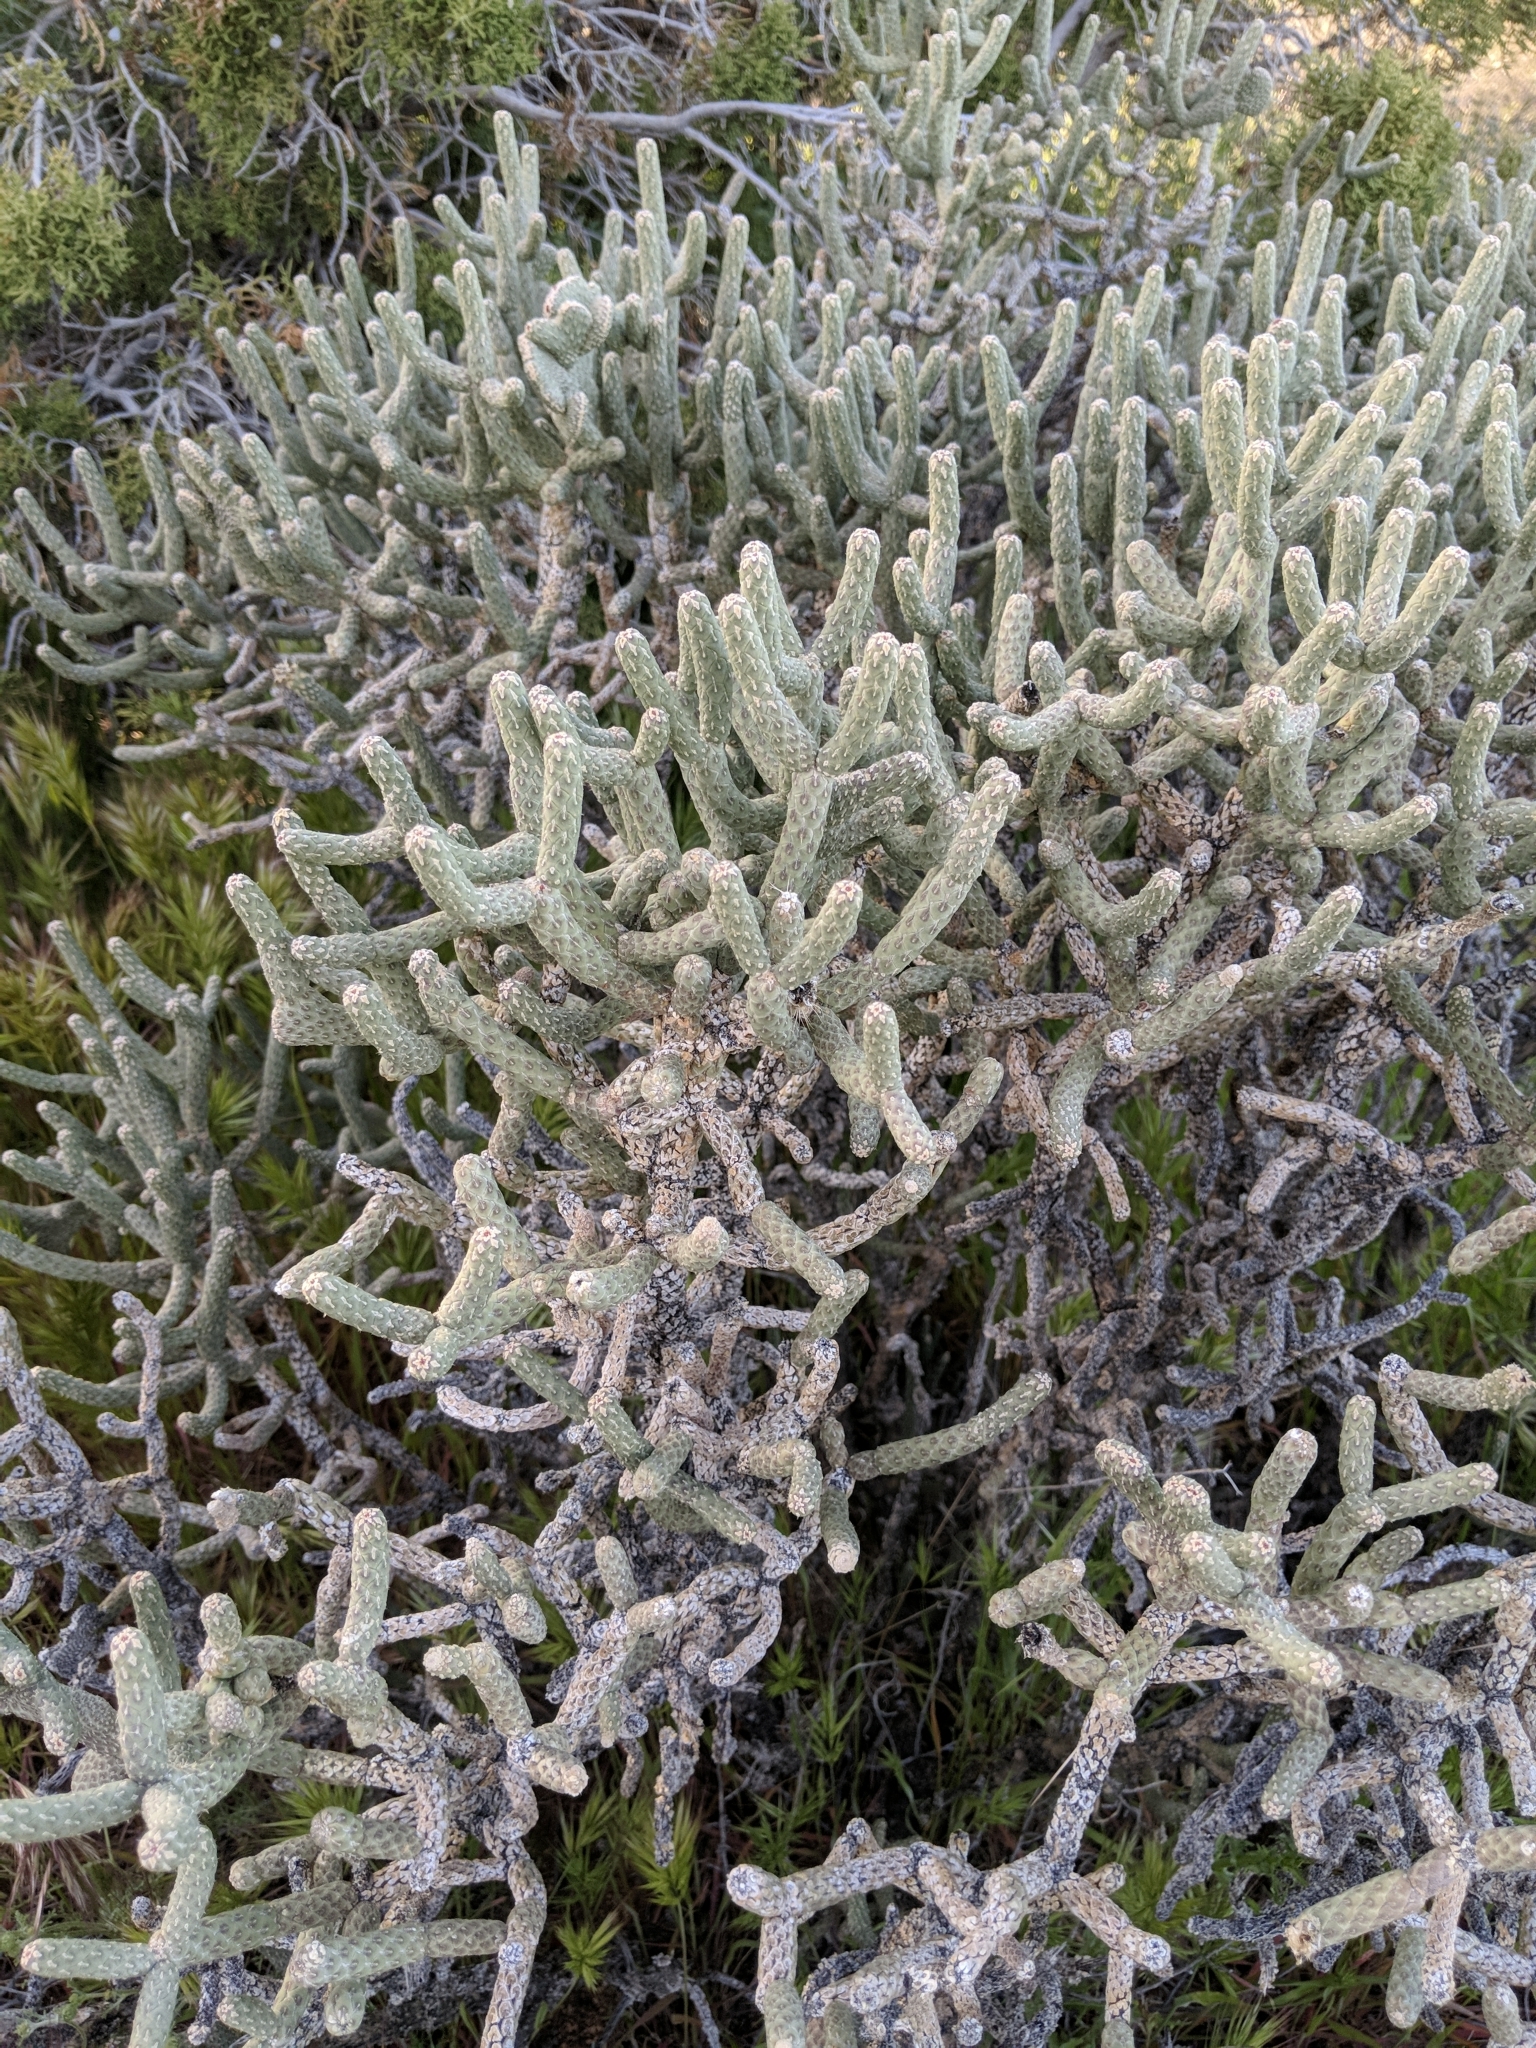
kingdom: Plantae
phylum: Tracheophyta
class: Magnoliopsida
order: Caryophyllales
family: Cactaceae
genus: Cylindropuntia
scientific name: Cylindropuntia ramosissima
